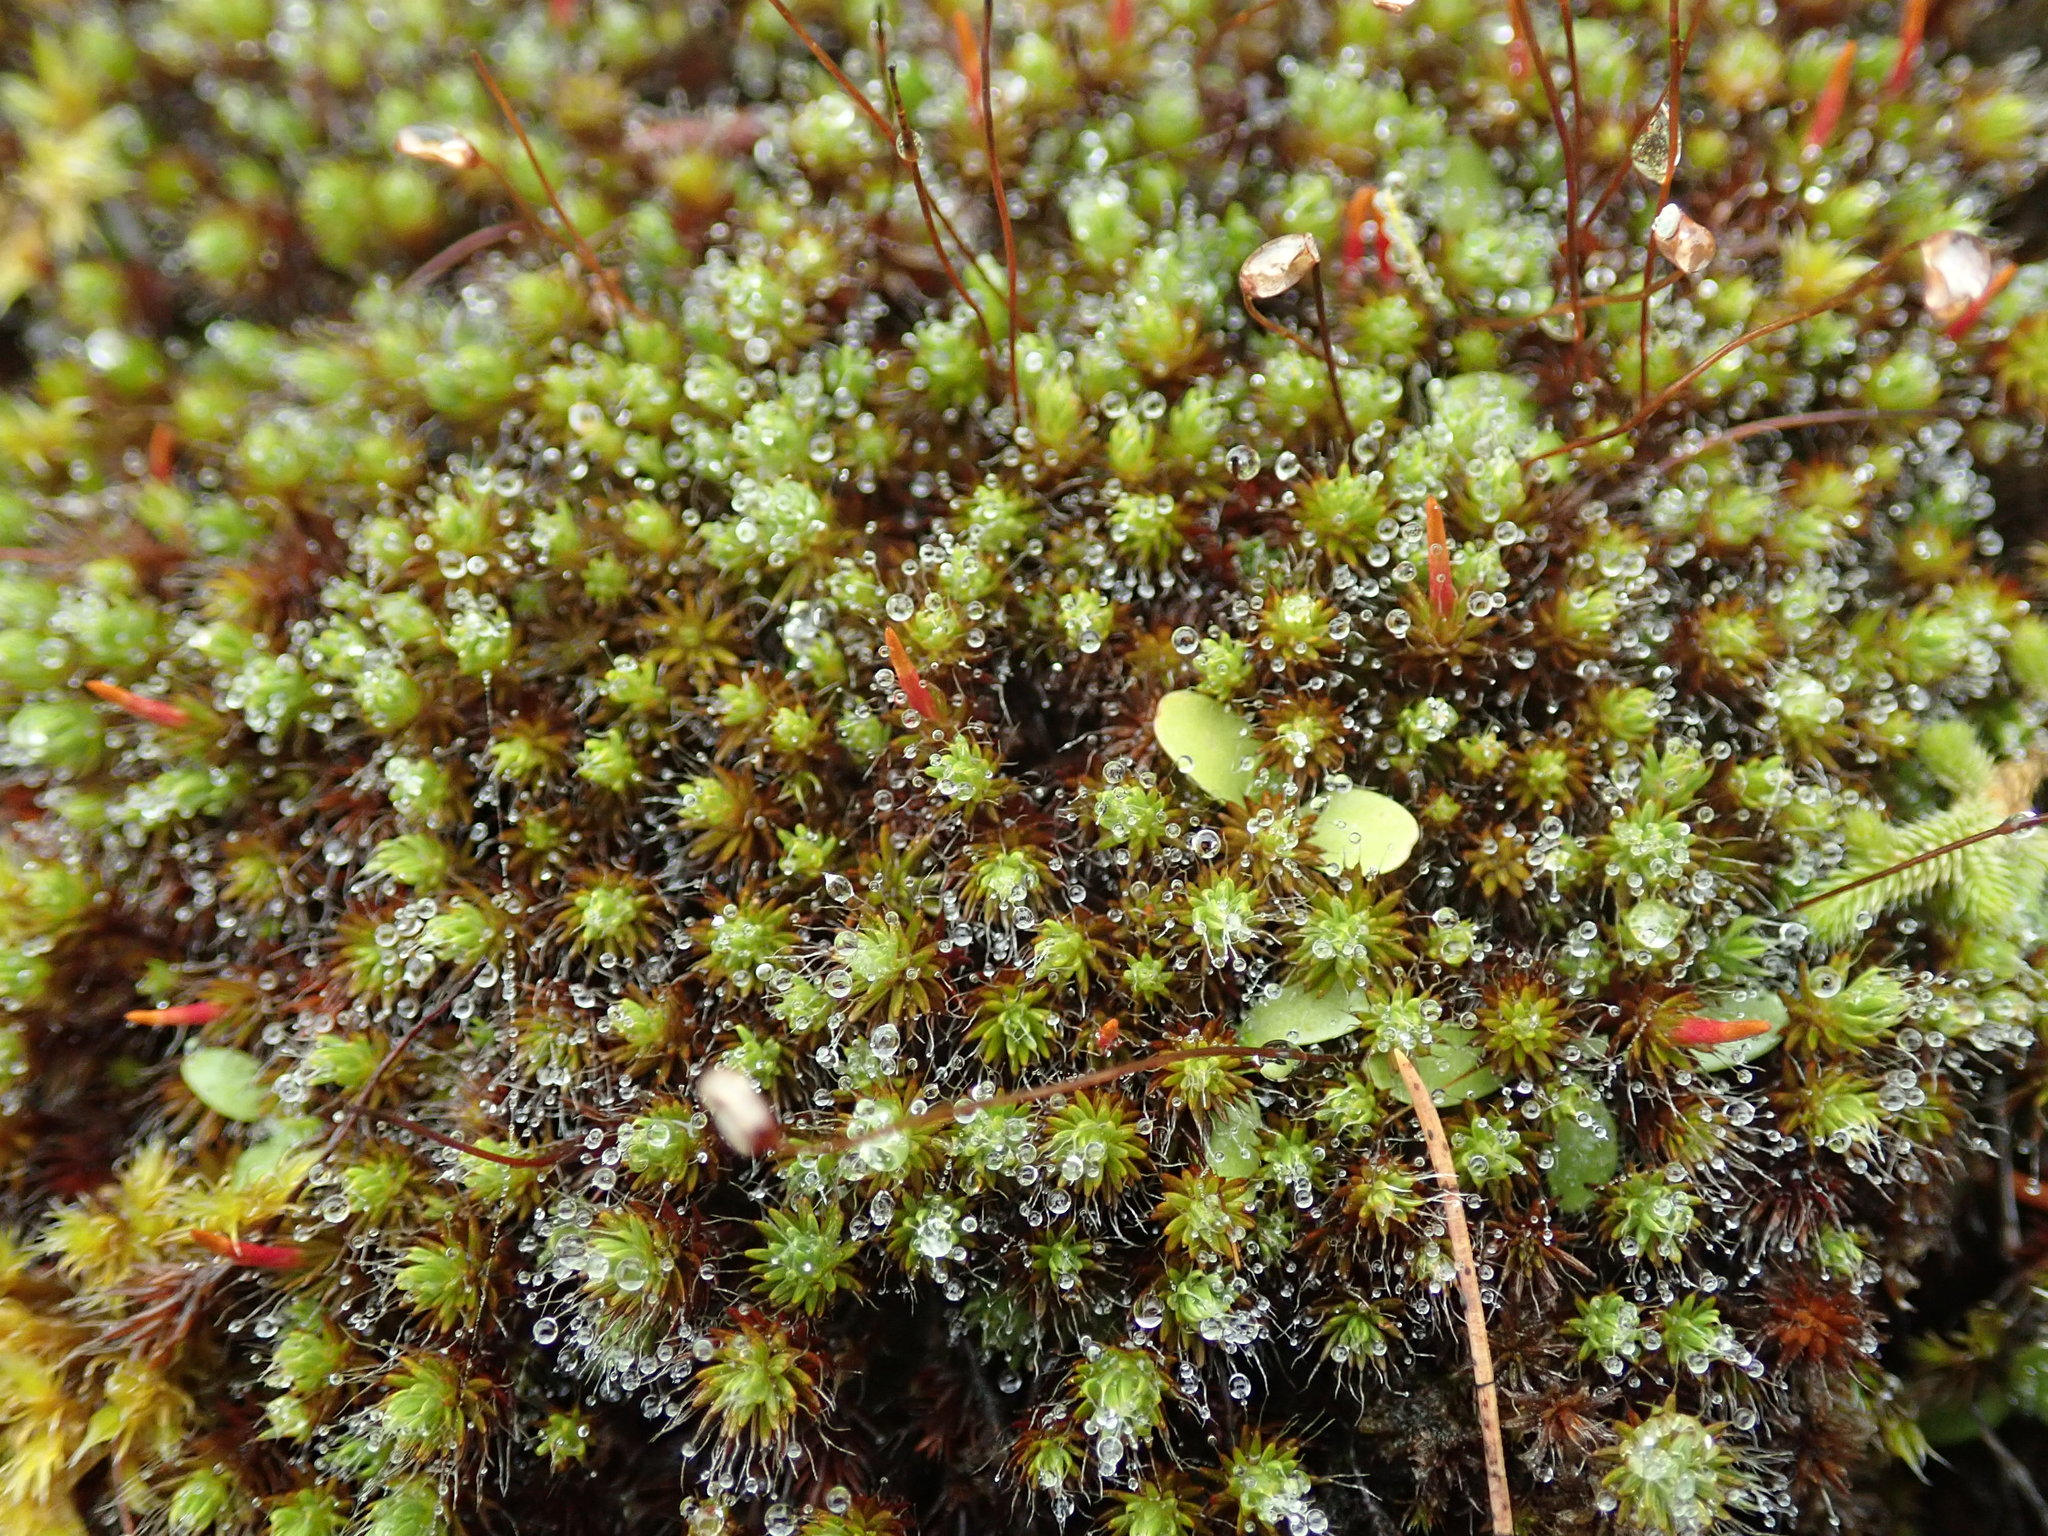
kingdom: Plantae
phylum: Bryophyta
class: Polytrichopsida
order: Polytrichales
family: Polytrichaceae
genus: Polytrichum
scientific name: Polytrichum piliferum
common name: Bristly haircap
